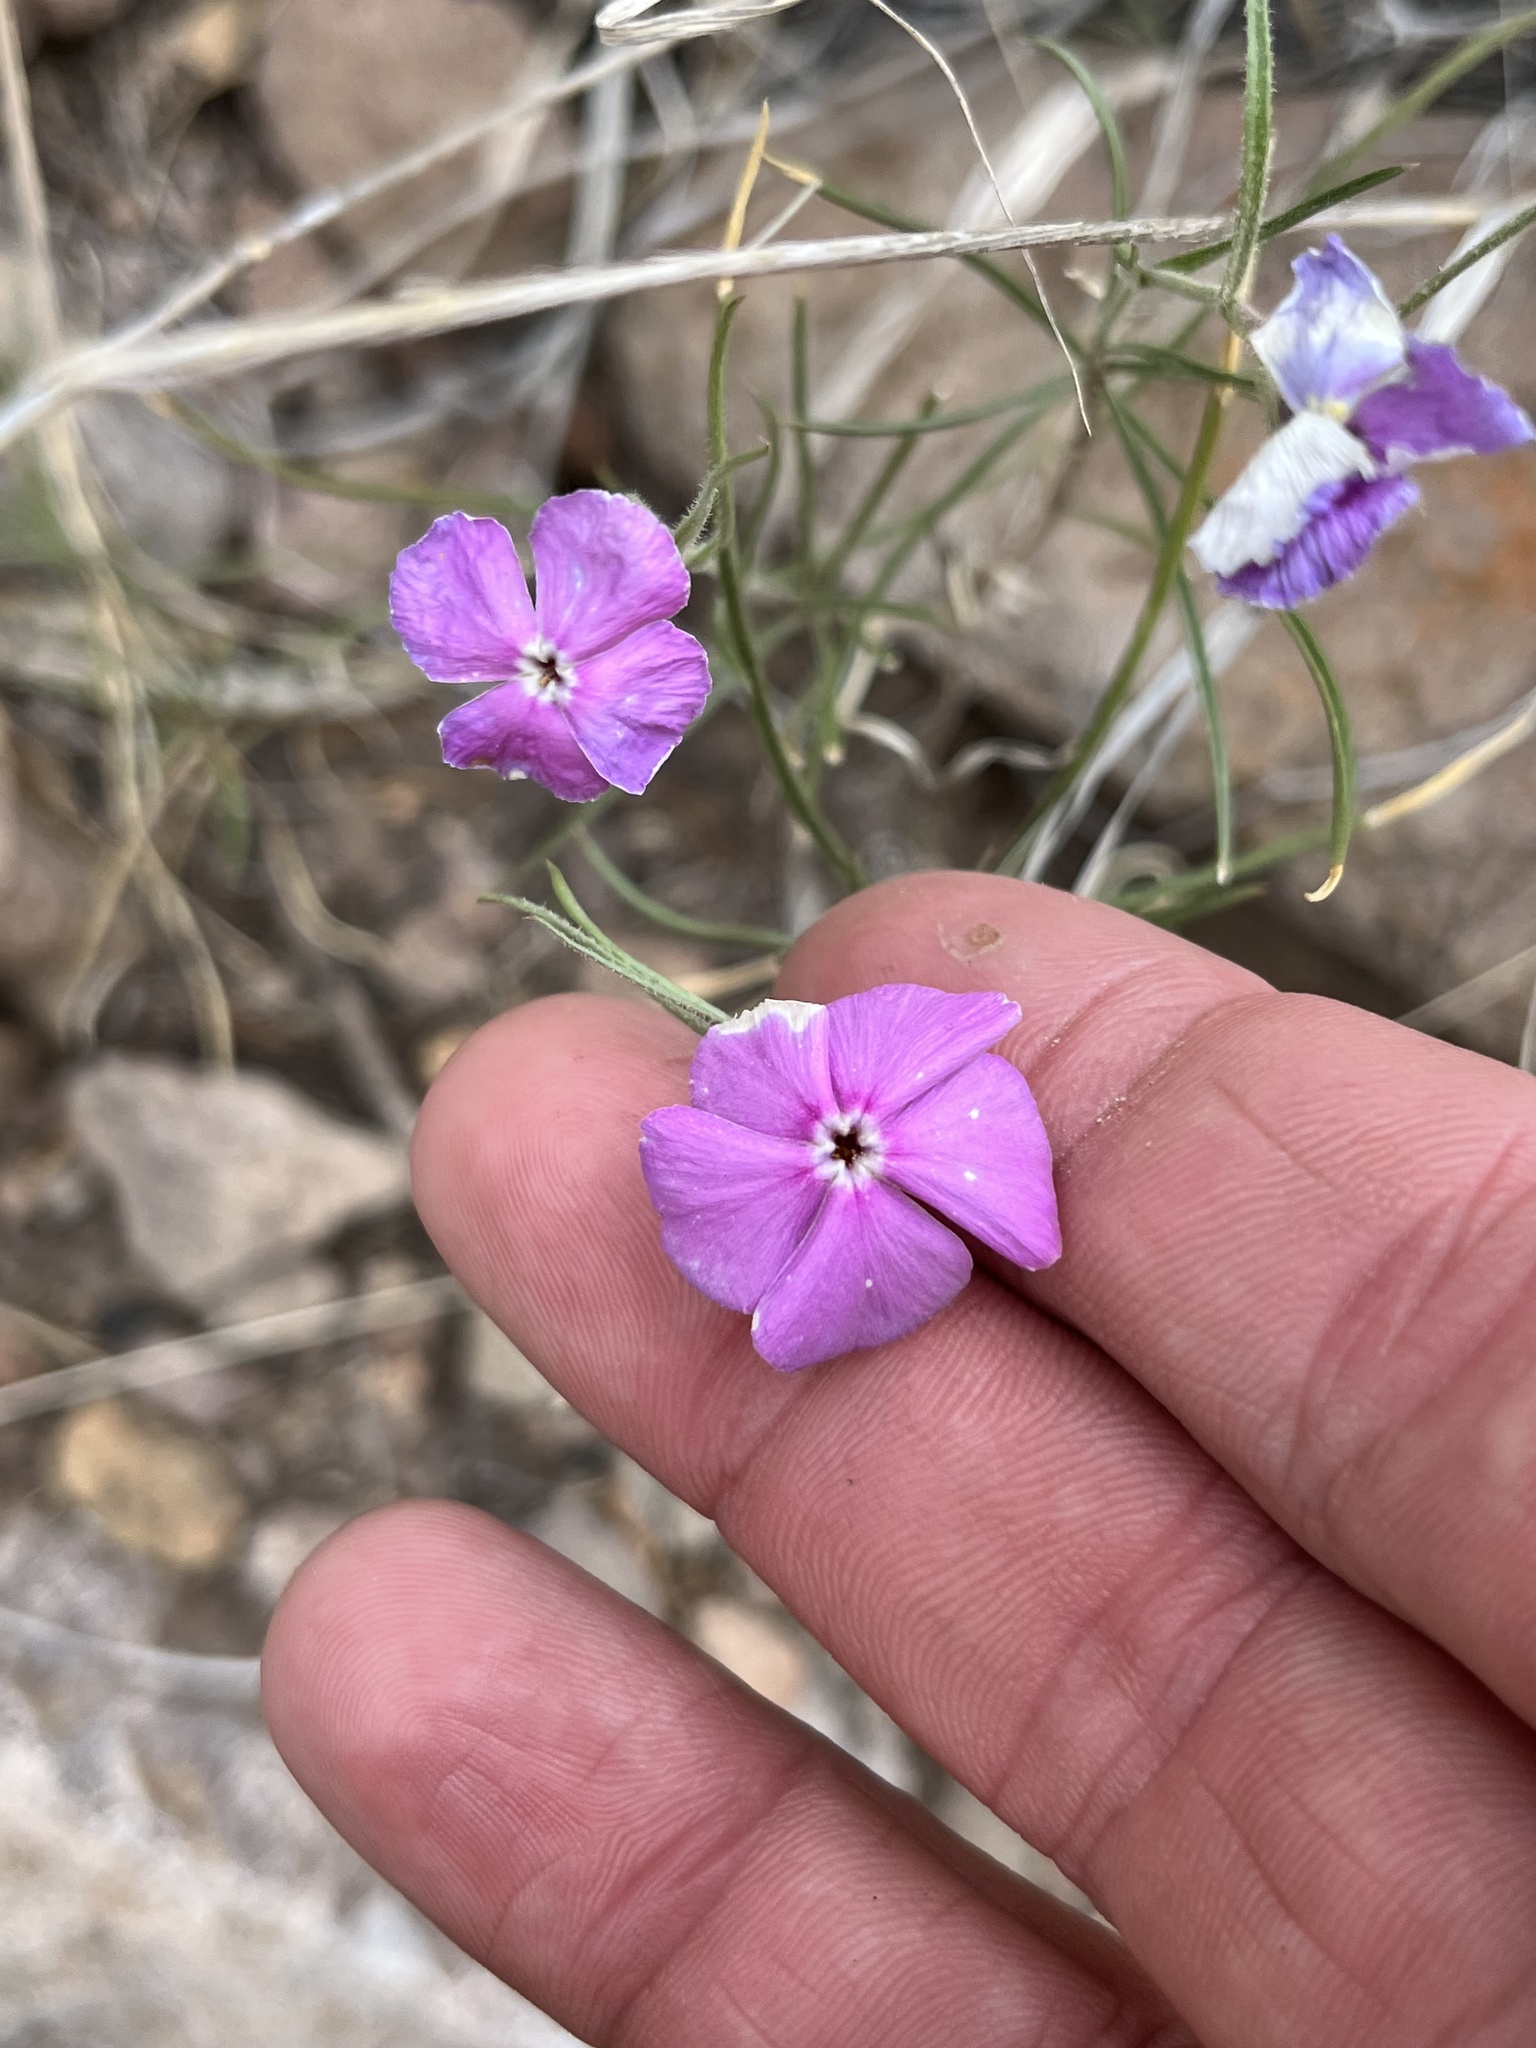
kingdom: Plantae
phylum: Tracheophyta
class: Magnoliopsida
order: Ericales
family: Polemoniaceae
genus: Phlox
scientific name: Phlox nana
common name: Santa fe phlox
